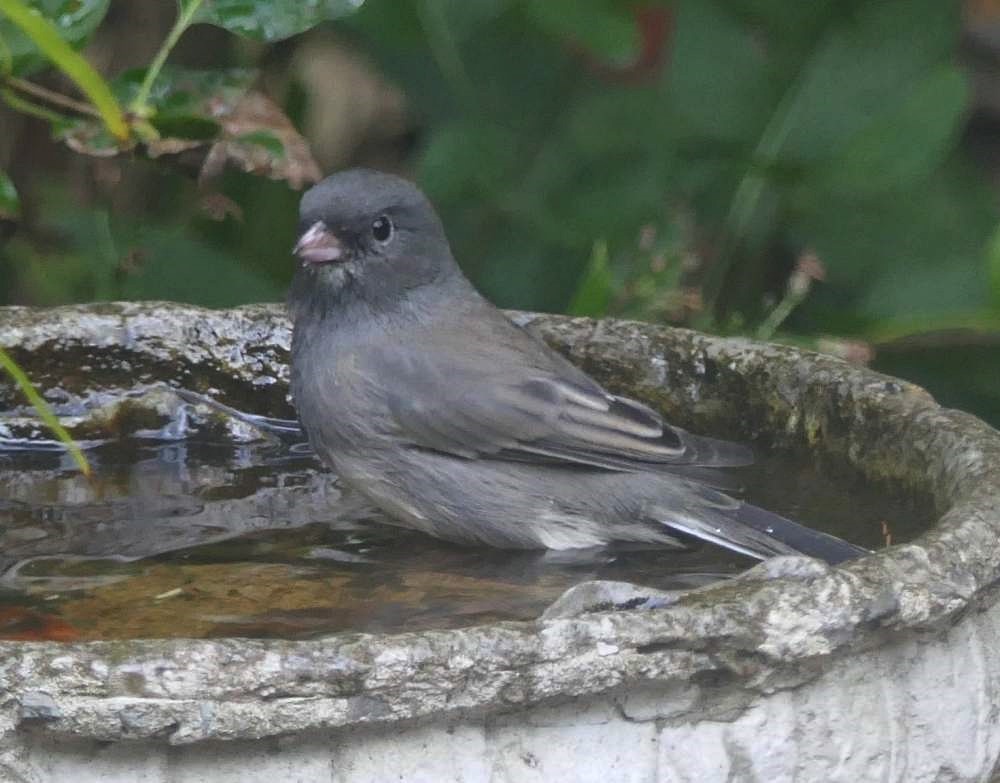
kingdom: Animalia
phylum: Chordata
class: Aves
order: Passeriformes
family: Passerellidae
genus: Junco
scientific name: Junco hyemalis
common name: Dark-eyed junco
